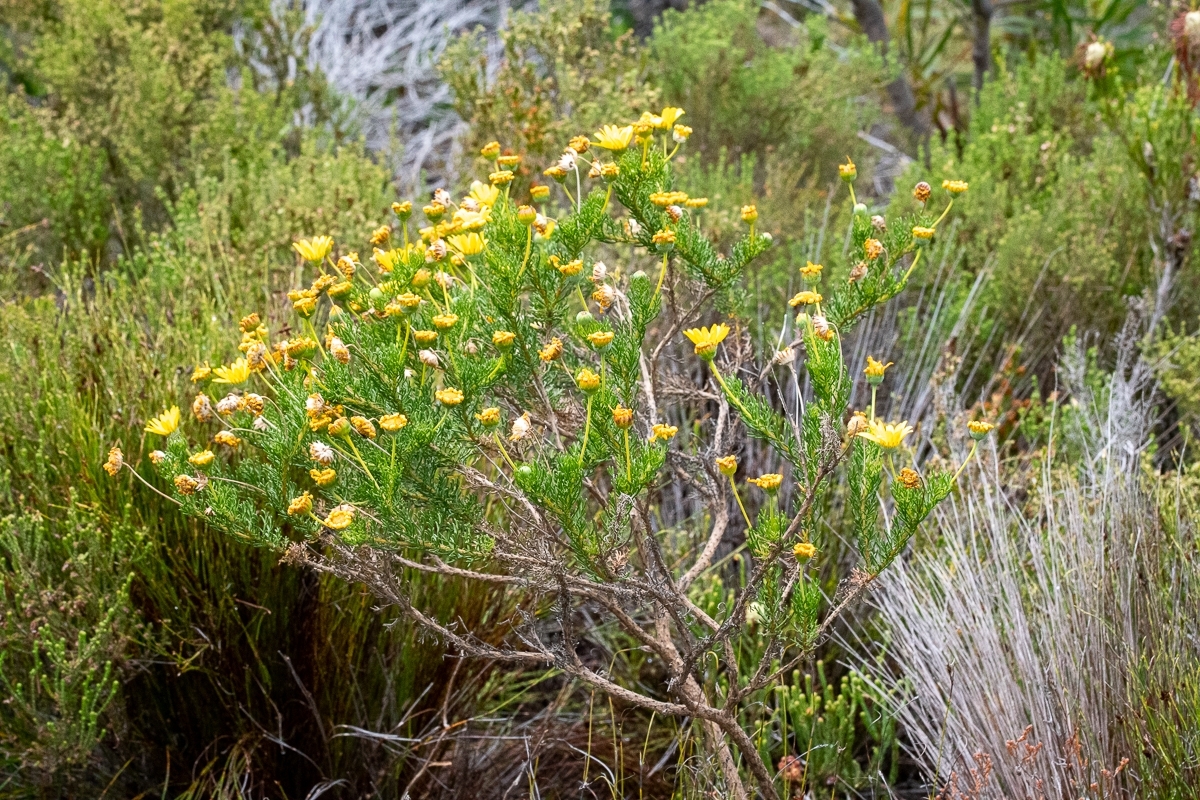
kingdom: Plantae
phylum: Tracheophyta
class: Magnoliopsida
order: Asterales
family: Asteraceae
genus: Euryops
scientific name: Euryops abrotanifolius
